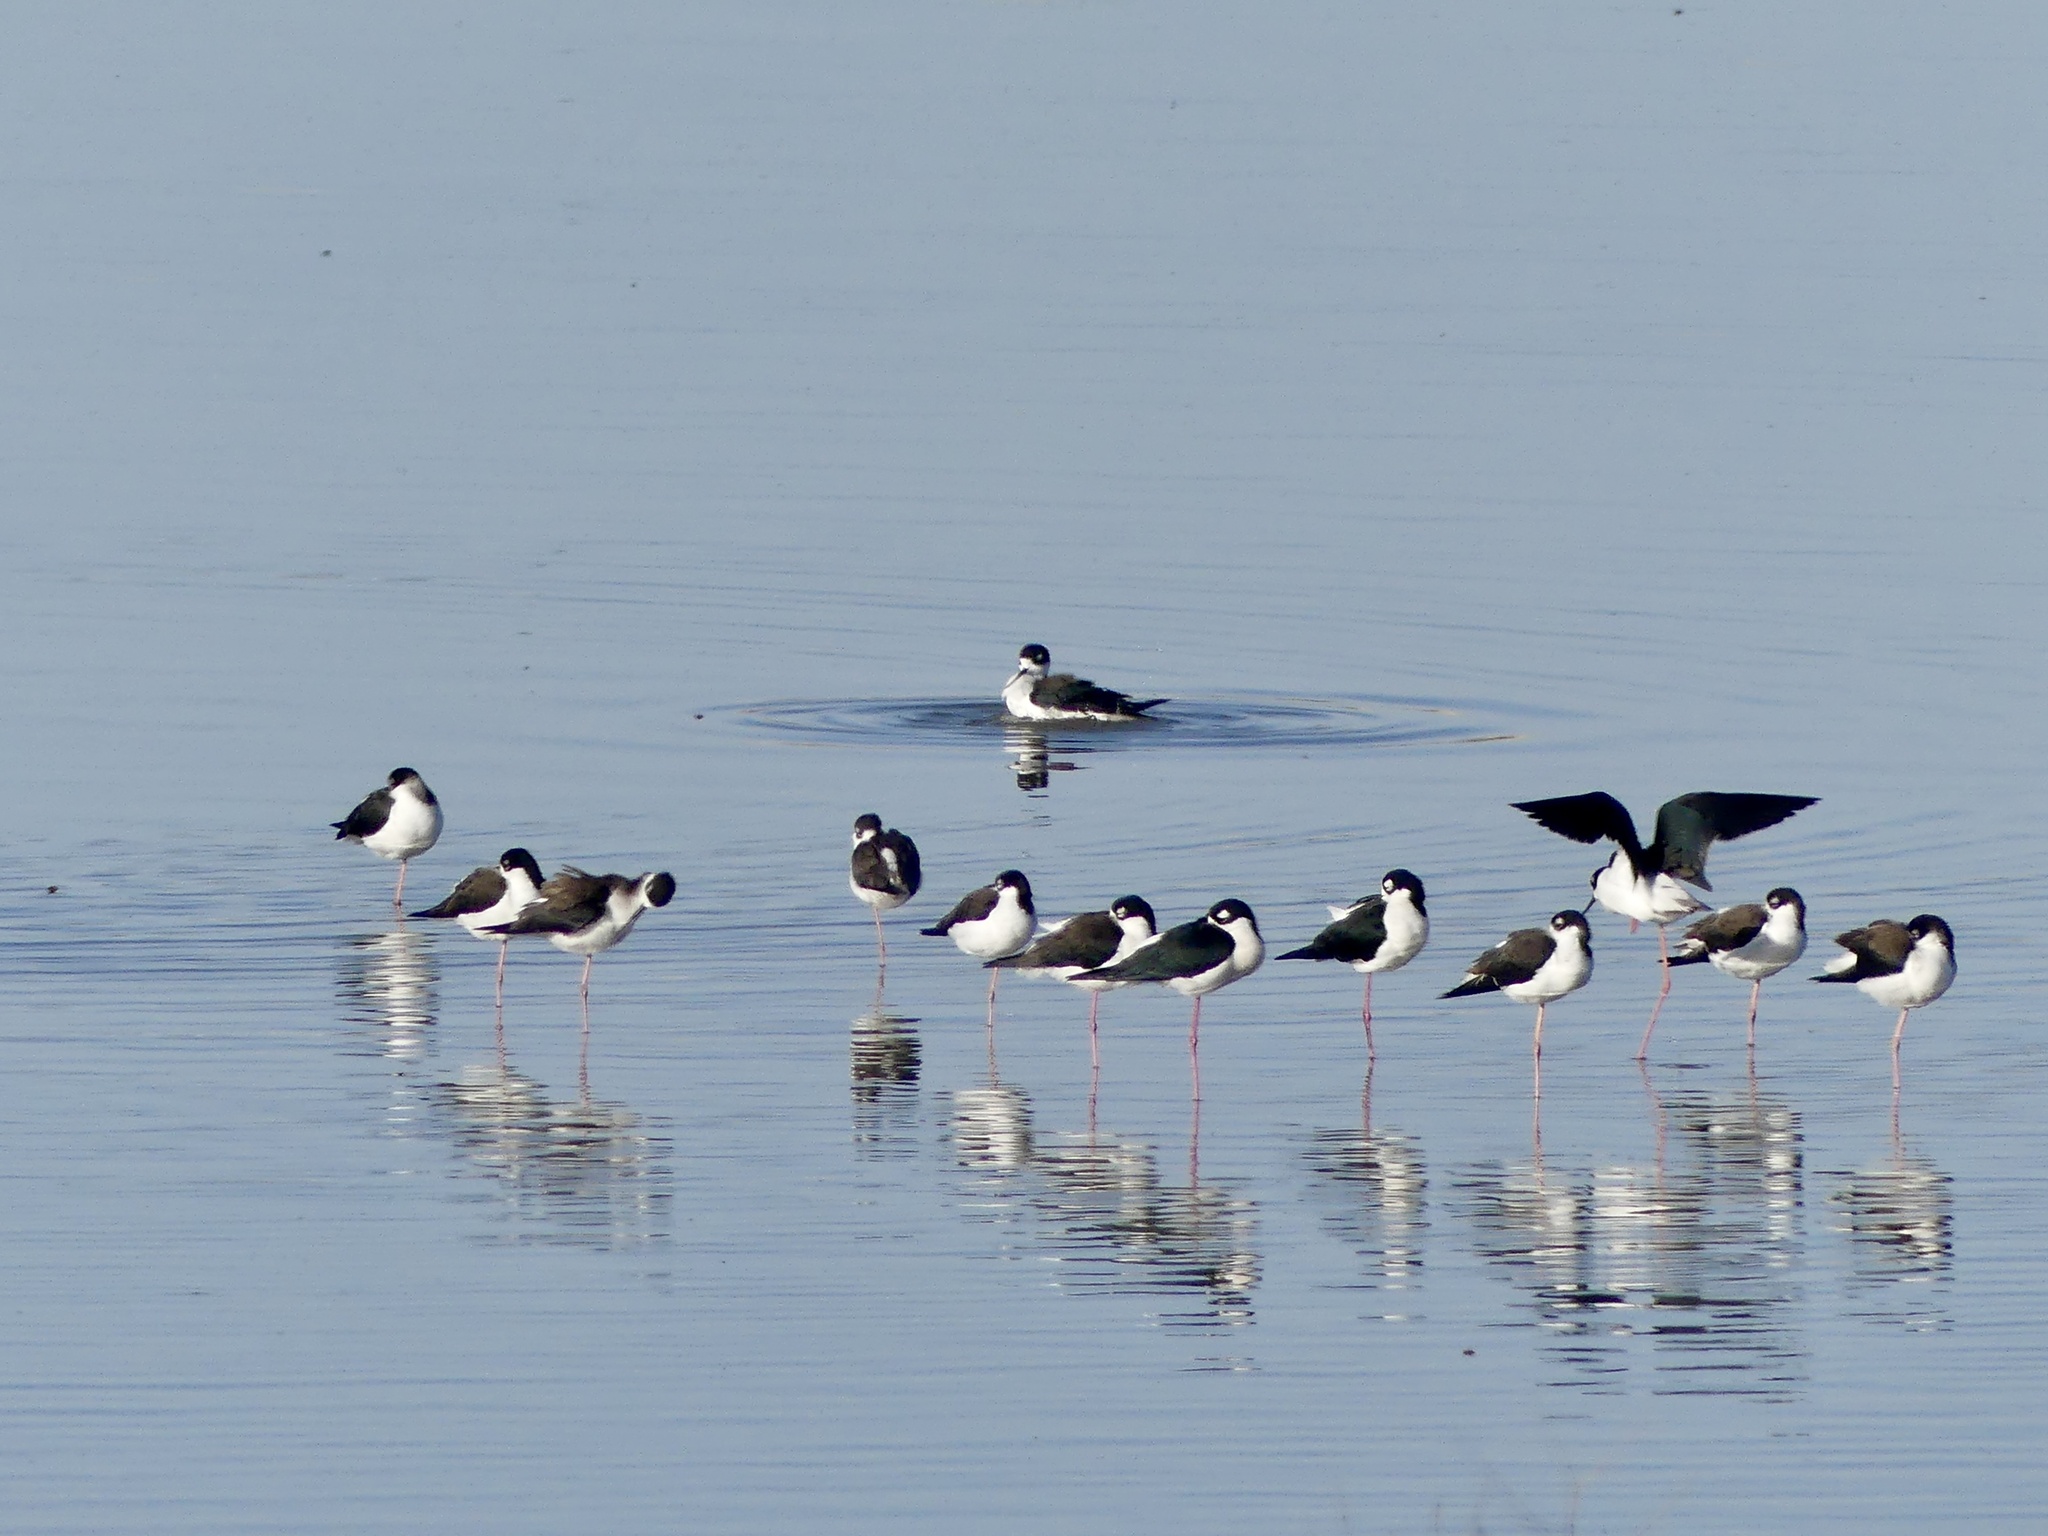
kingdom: Animalia
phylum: Chordata
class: Aves
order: Charadriiformes
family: Recurvirostridae
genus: Himantopus
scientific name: Himantopus mexicanus
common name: Black-necked stilt
